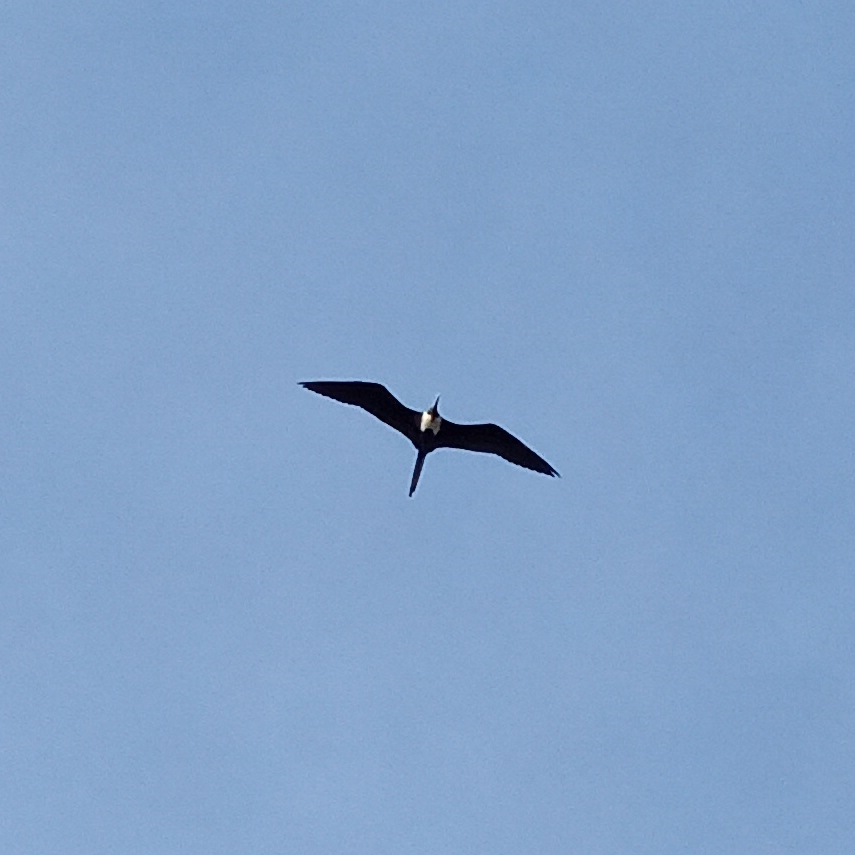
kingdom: Animalia
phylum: Chordata
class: Aves
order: Suliformes
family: Fregatidae
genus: Fregata
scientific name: Fregata magnificens
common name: Magnificent frigatebird
